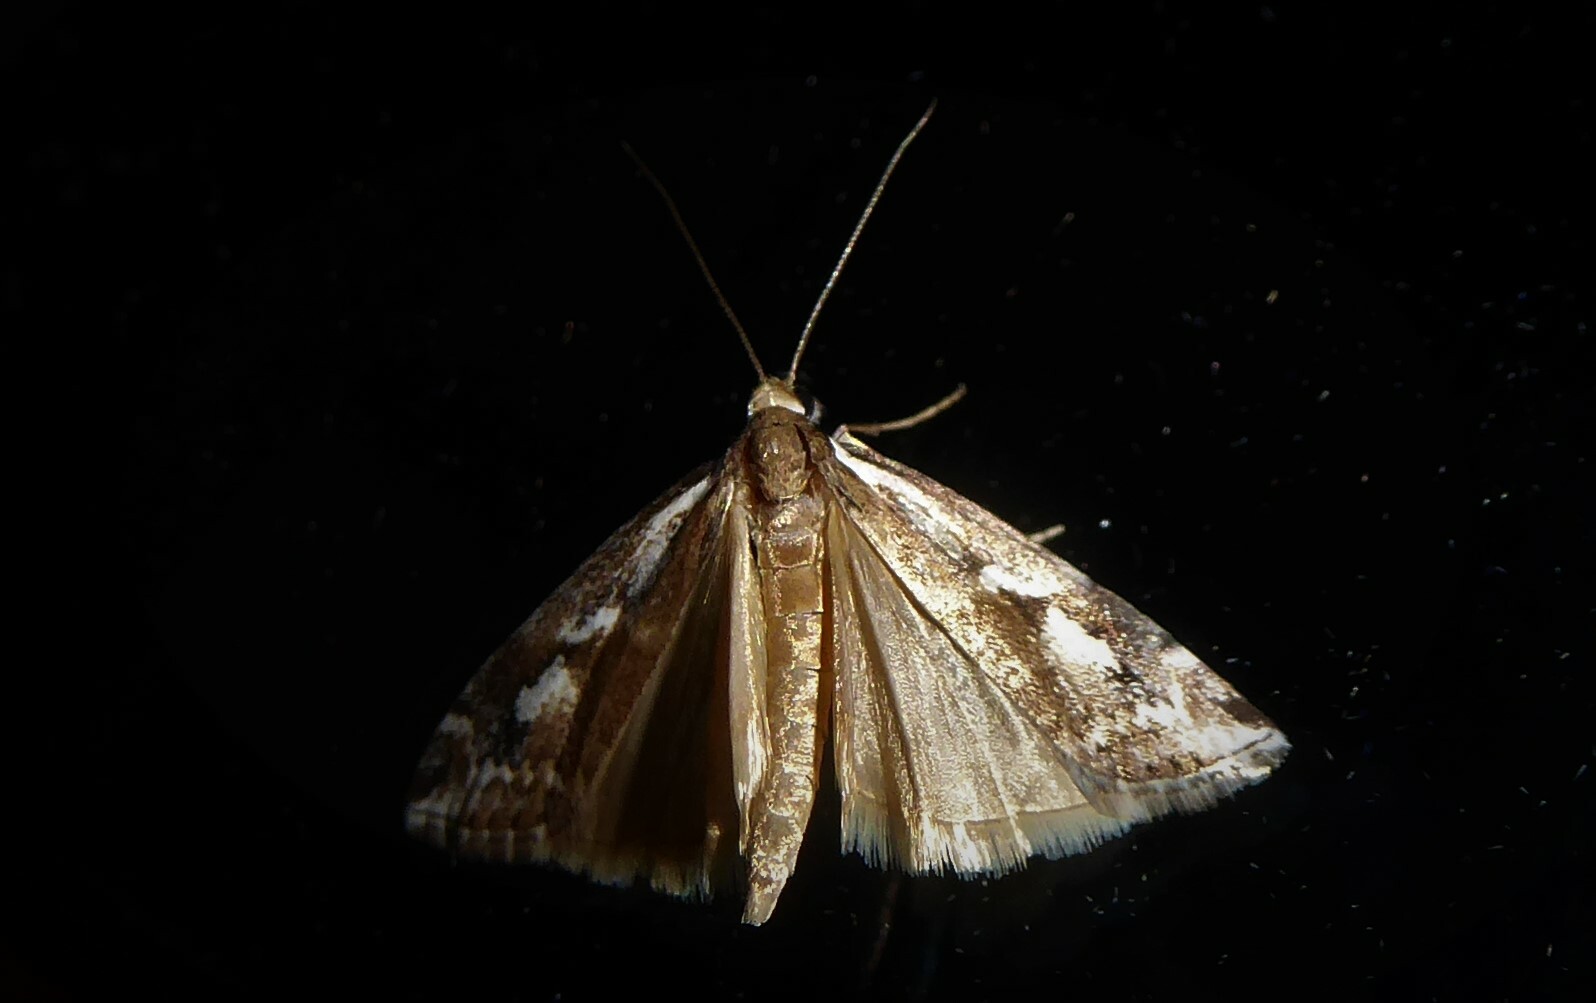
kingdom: Animalia
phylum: Arthropoda
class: Insecta
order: Lepidoptera
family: Crambidae
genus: Orocrambus
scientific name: Orocrambus vulgaris
